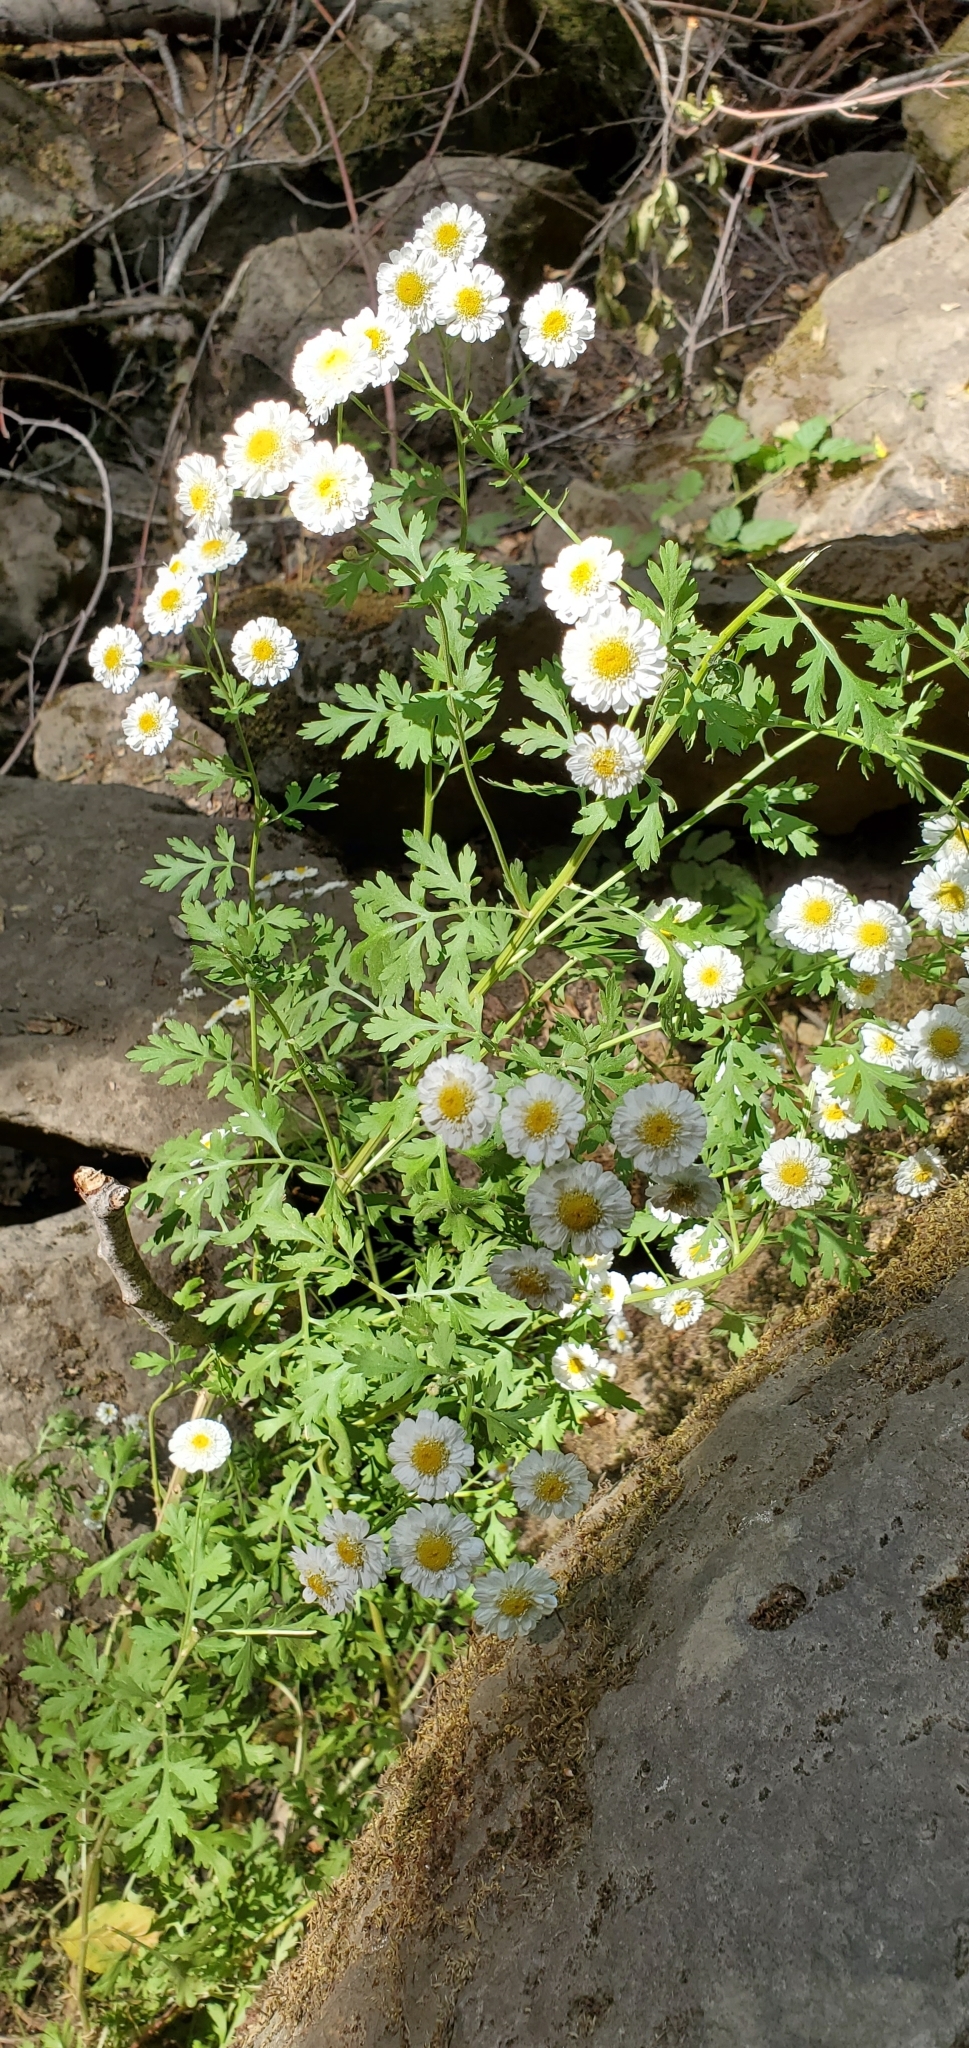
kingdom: Plantae
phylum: Tracheophyta
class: Magnoliopsida
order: Asterales
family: Asteraceae
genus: Tanacetum
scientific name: Tanacetum parthenium
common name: Feverfew
